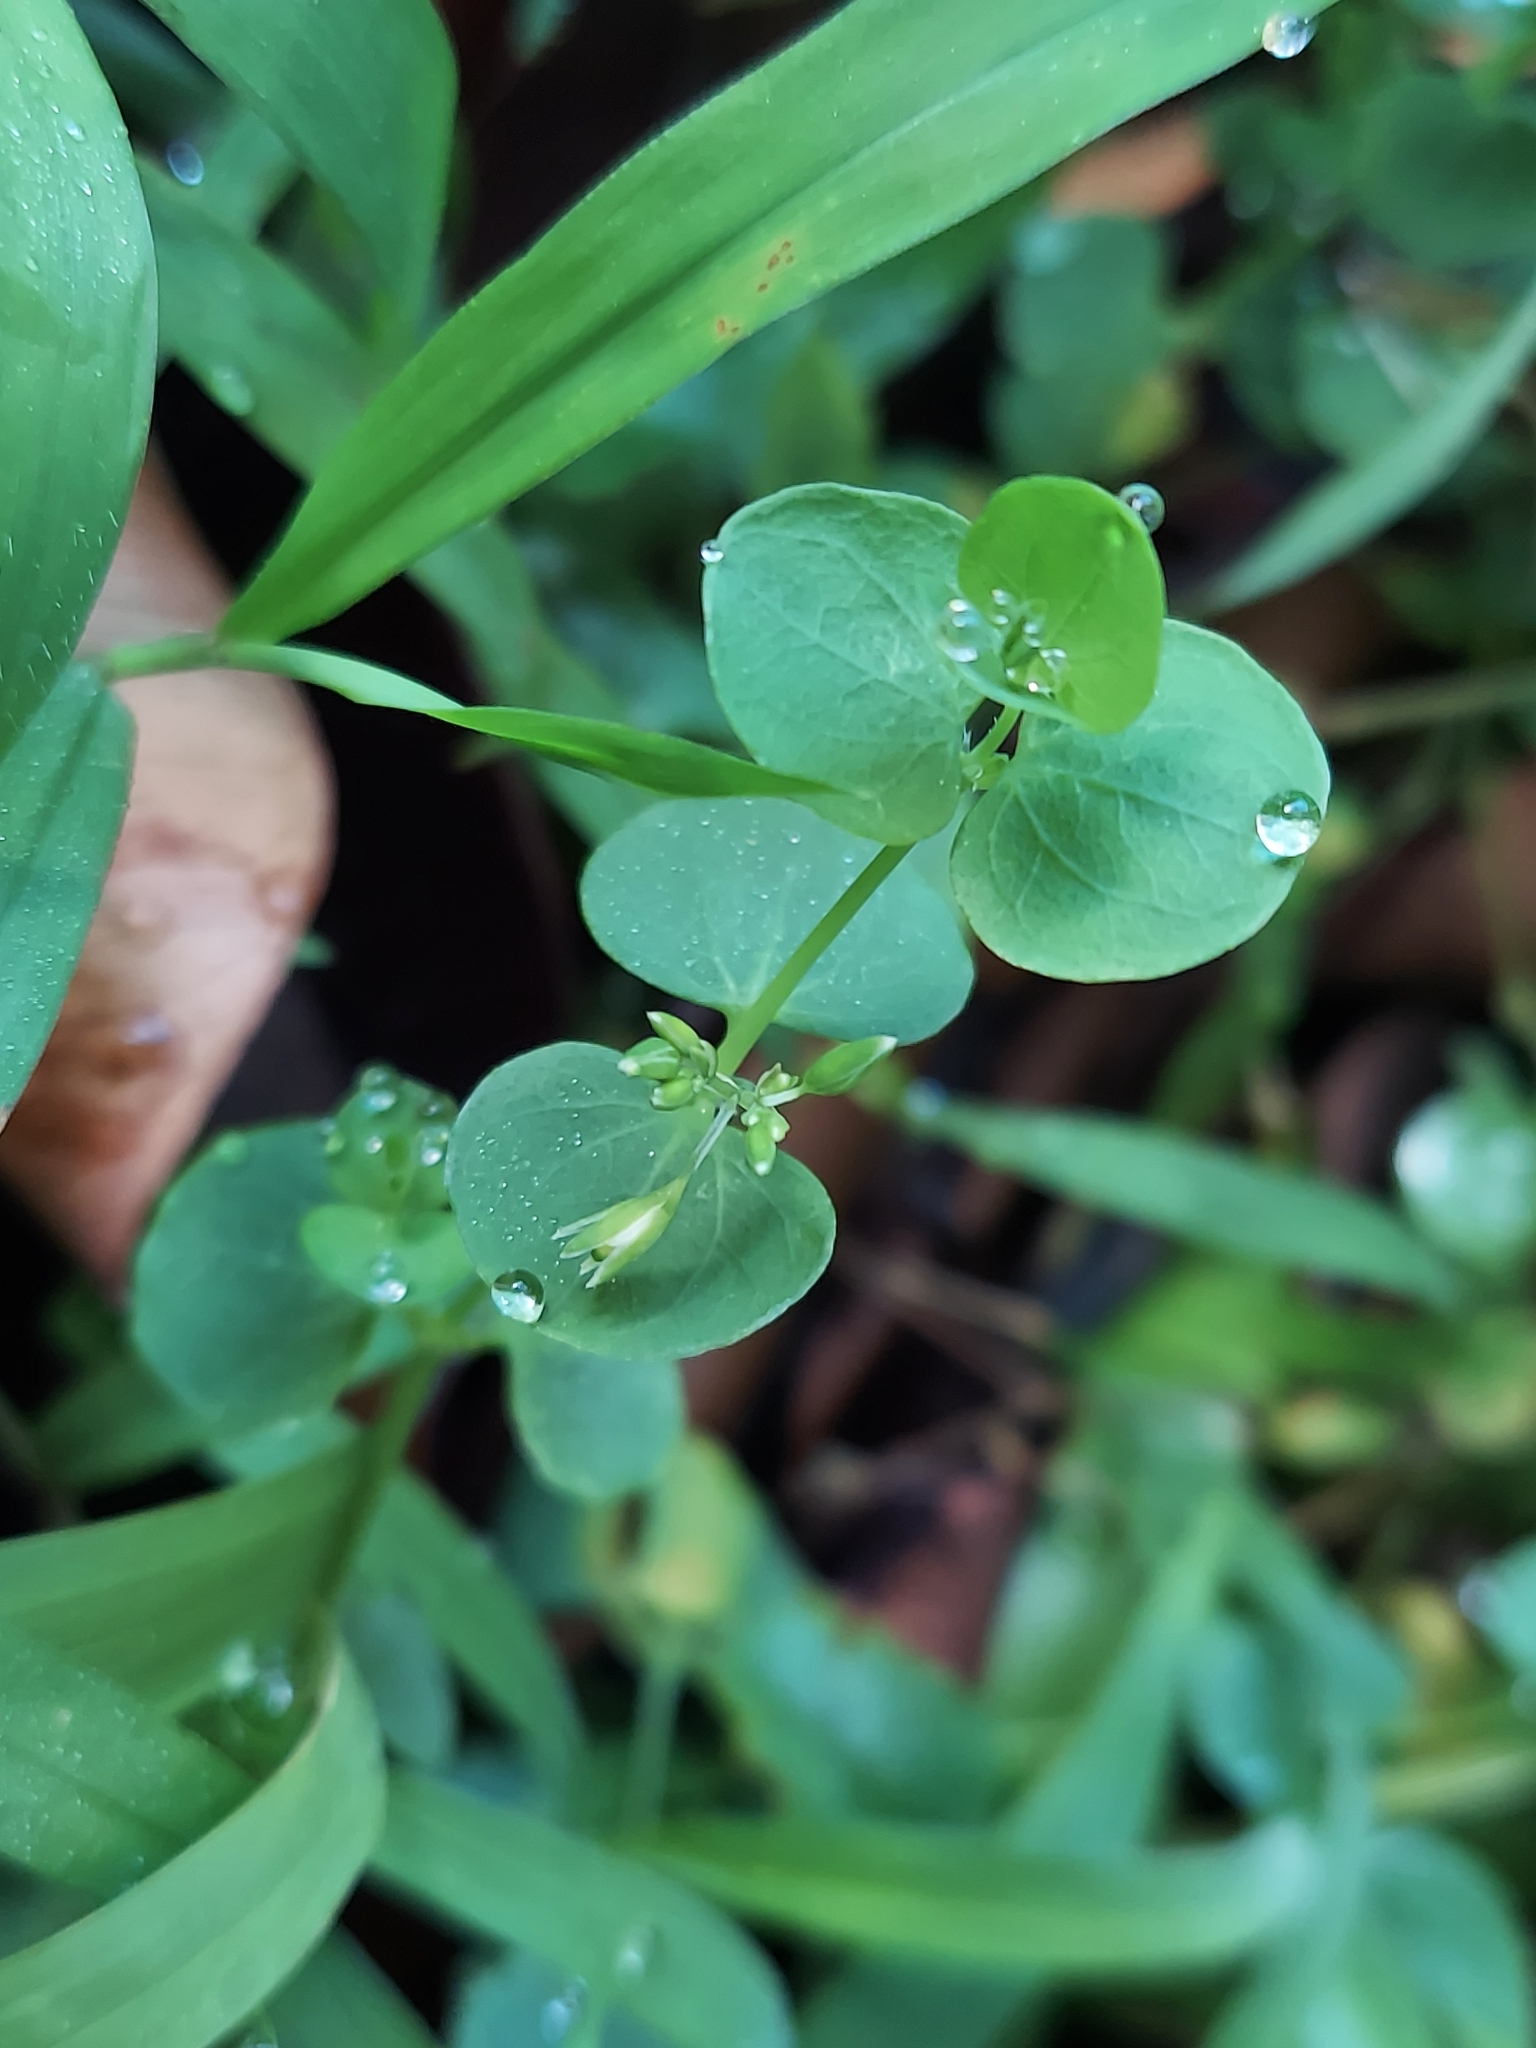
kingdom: Plantae
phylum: Tracheophyta
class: Magnoliopsida
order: Caryophyllales
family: Caryophyllaceae
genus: Drymaria
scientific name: Drymaria cordata
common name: Whitesnow
